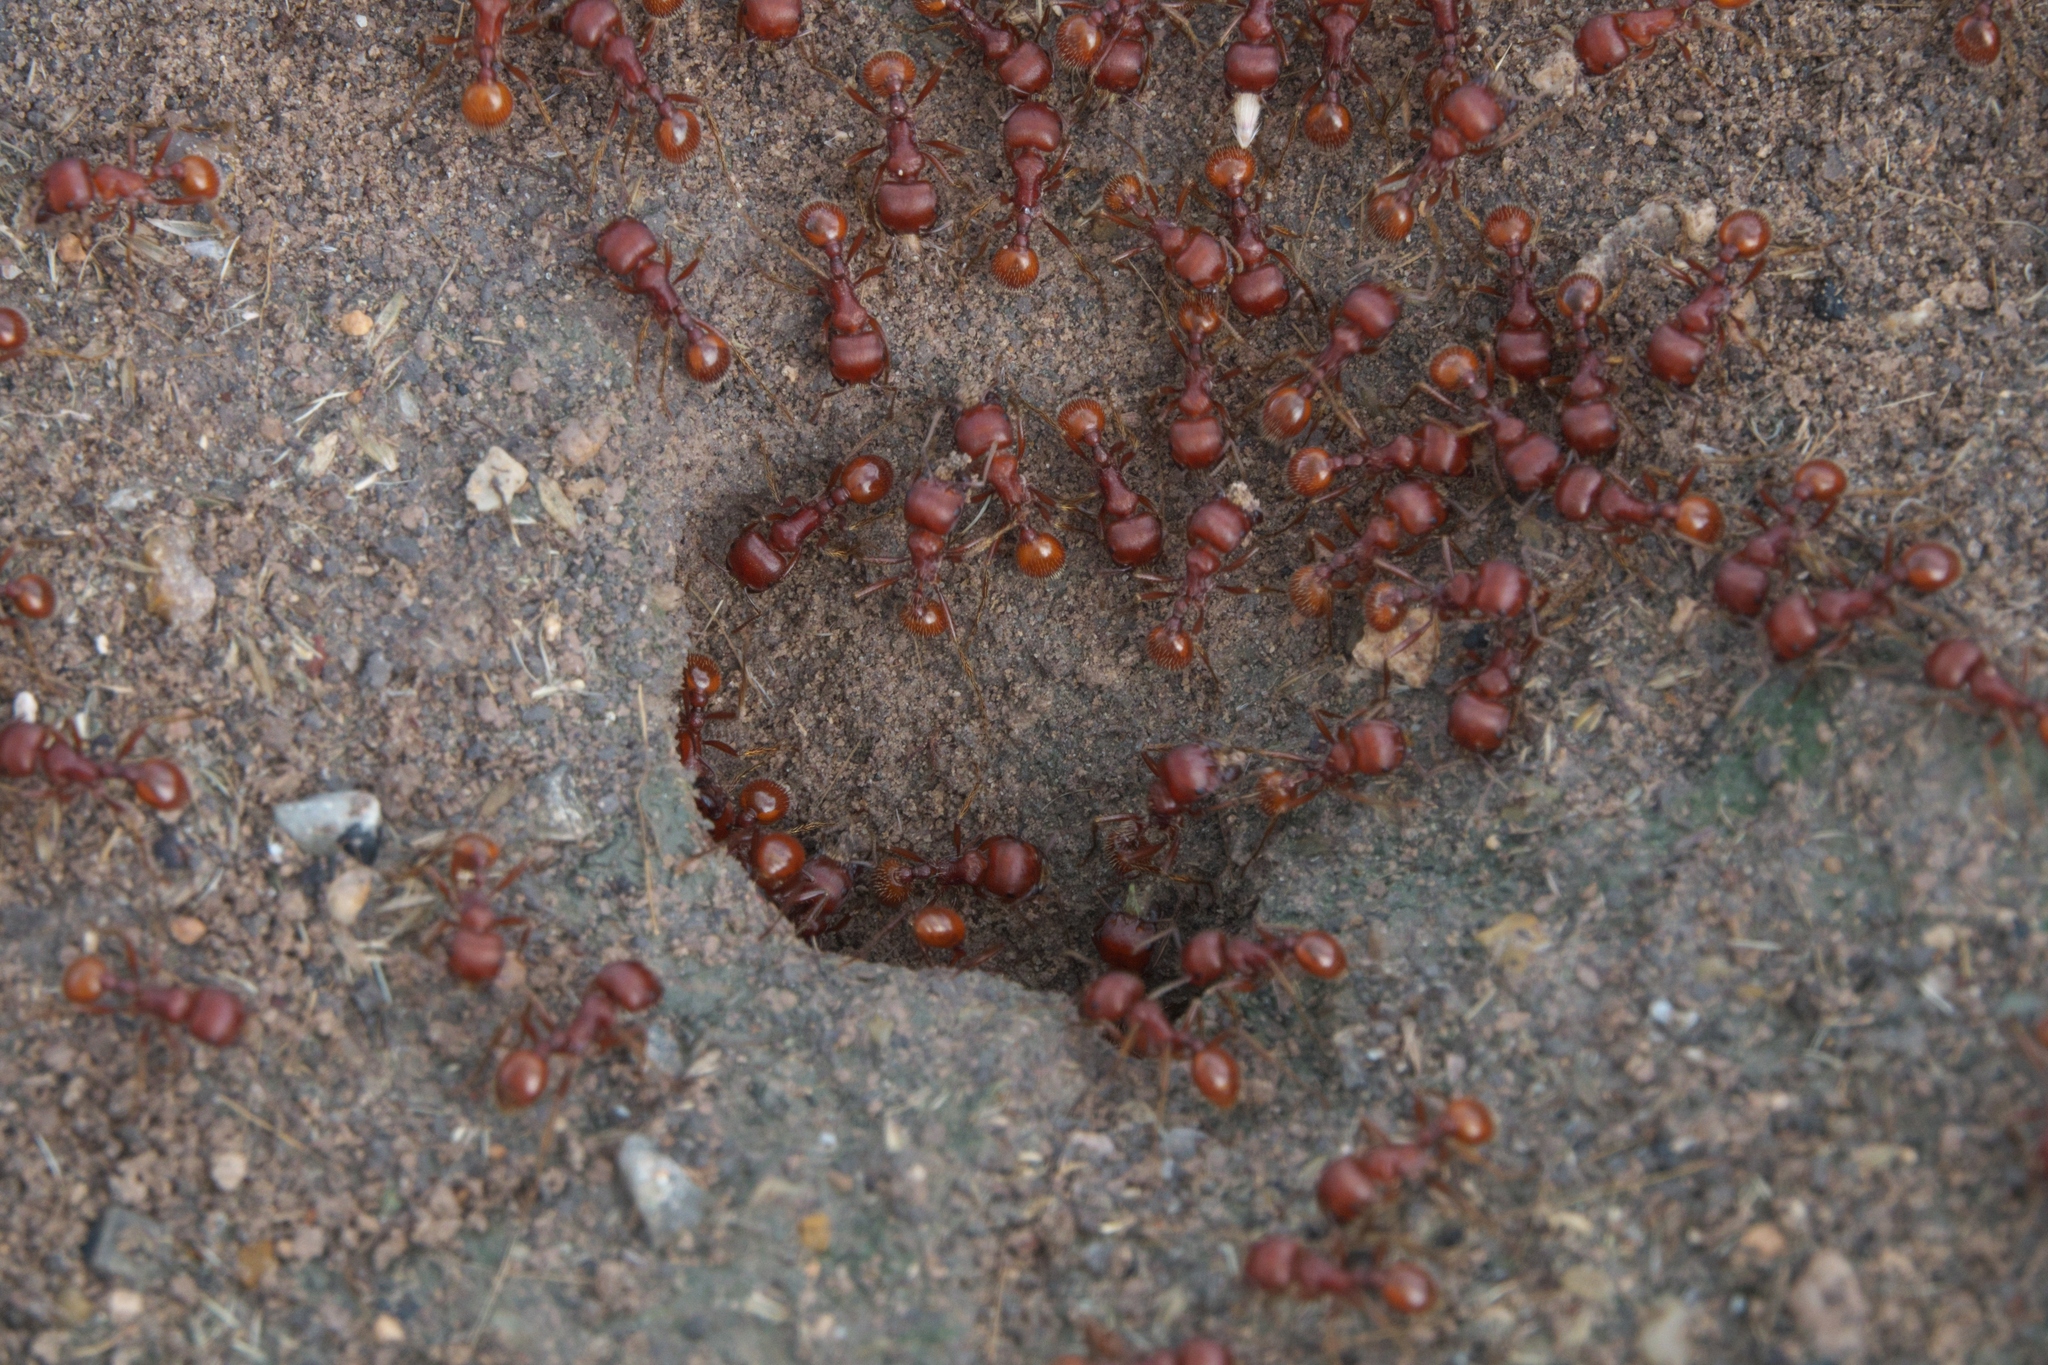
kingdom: Animalia
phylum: Arthropoda
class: Insecta
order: Hymenoptera
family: Formicidae
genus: Pogonomyrmex
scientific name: Pogonomyrmex barbatus
